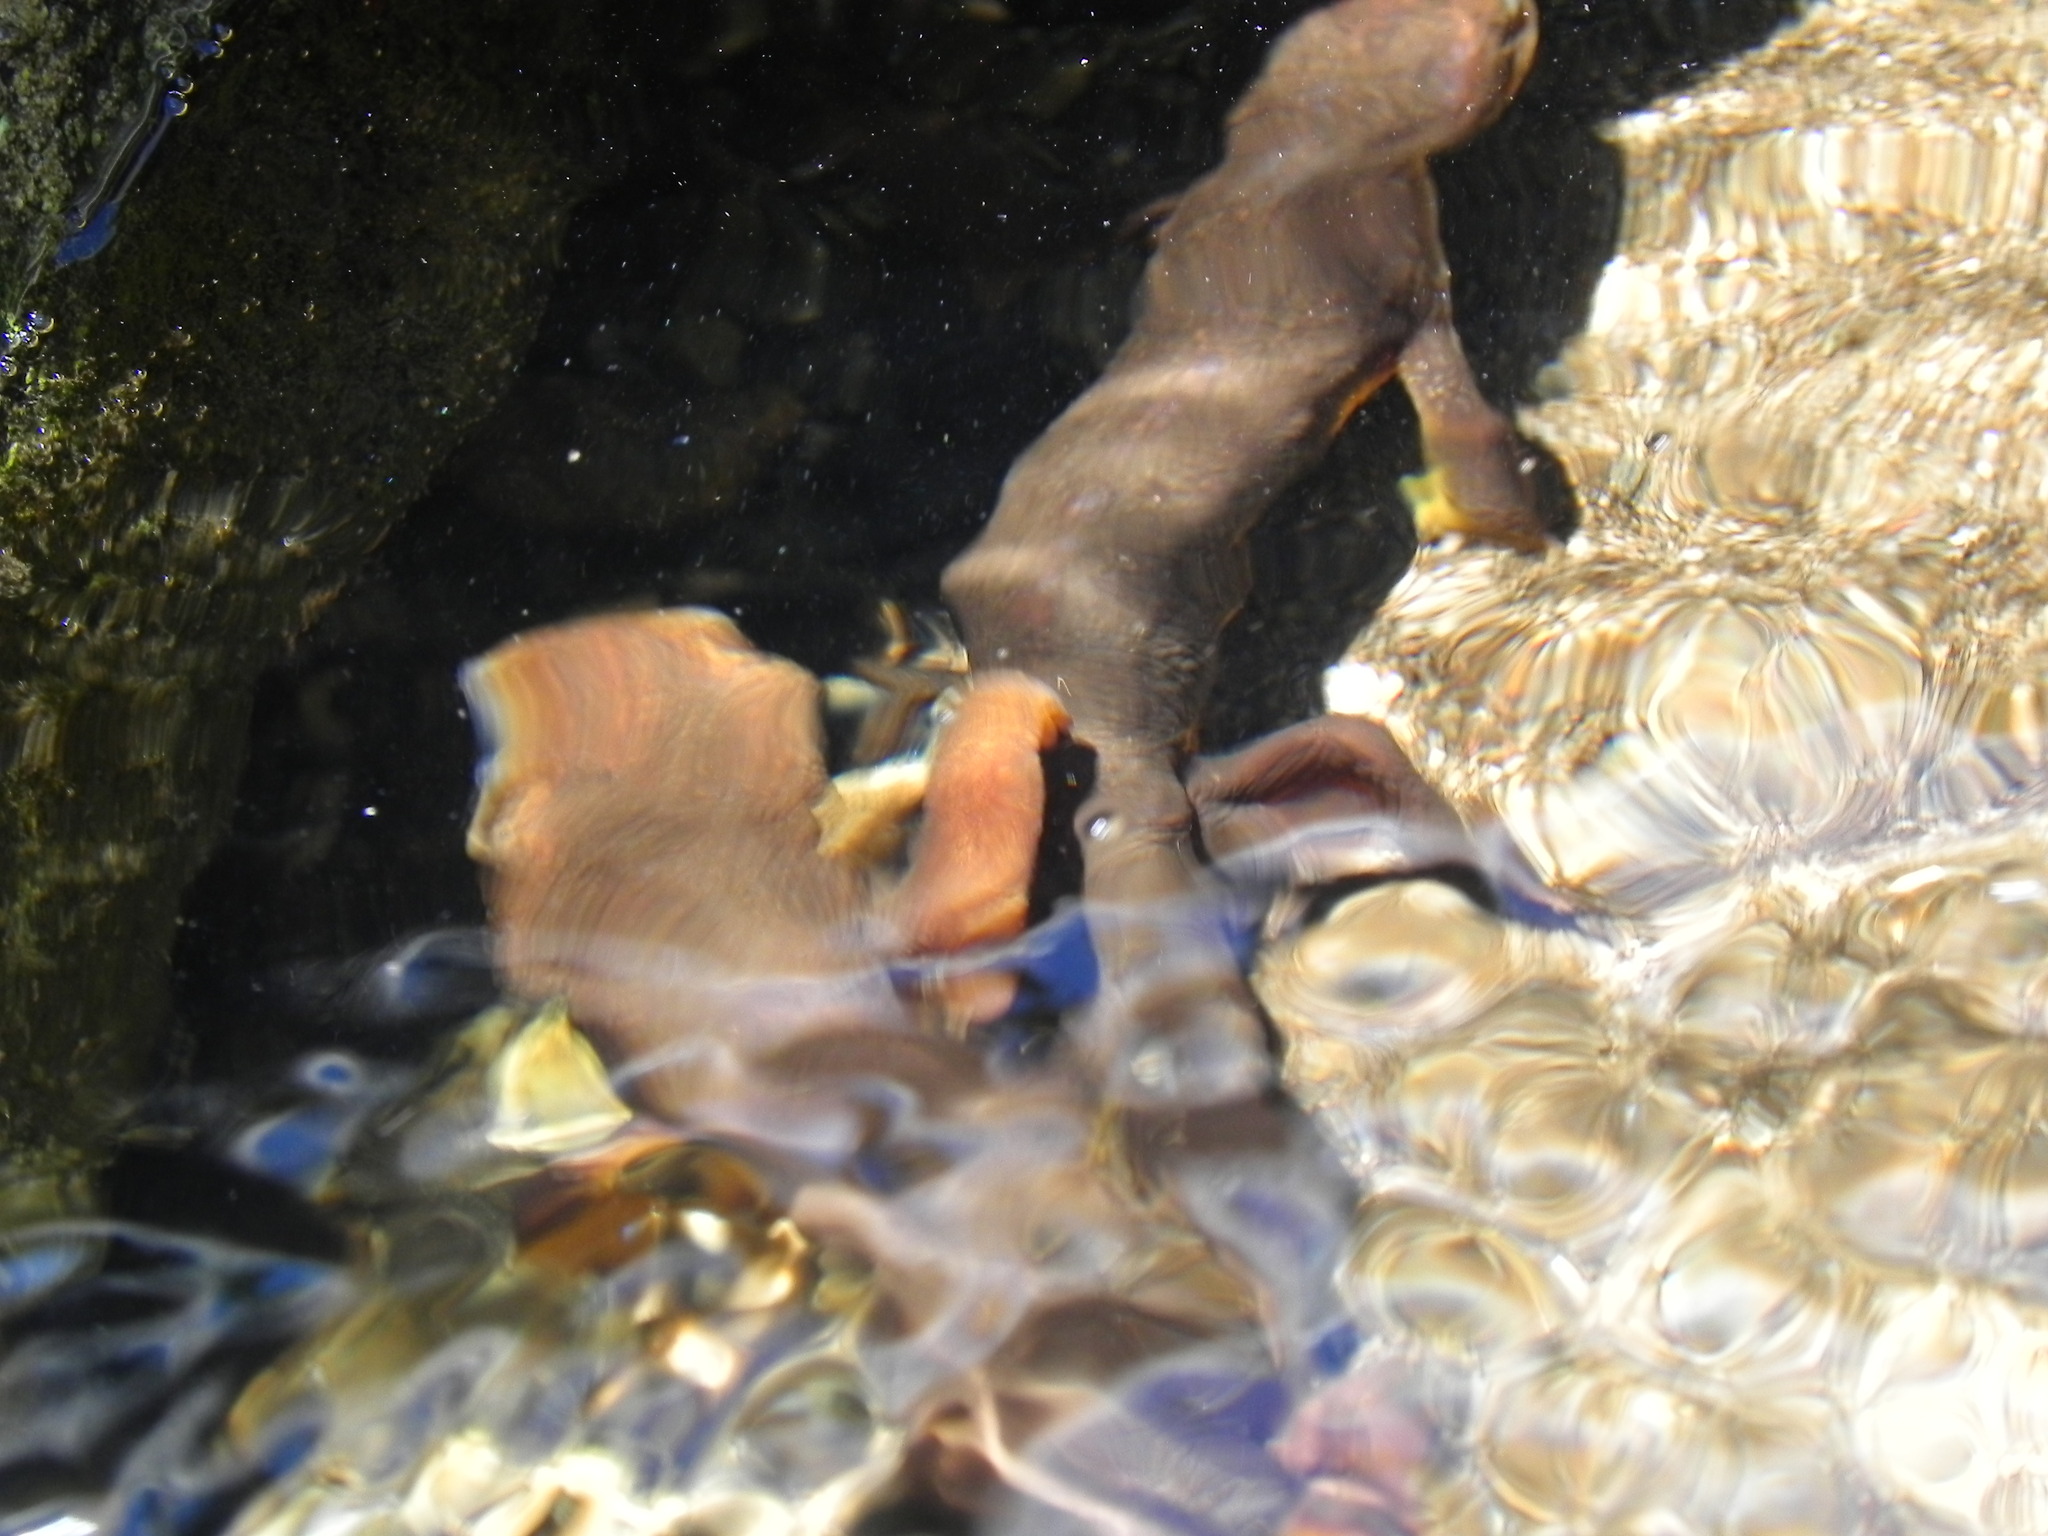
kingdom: Animalia
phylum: Chordata
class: Amphibia
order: Caudata
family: Salamandridae
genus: Taricha
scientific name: Taricha torosa
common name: California newt
